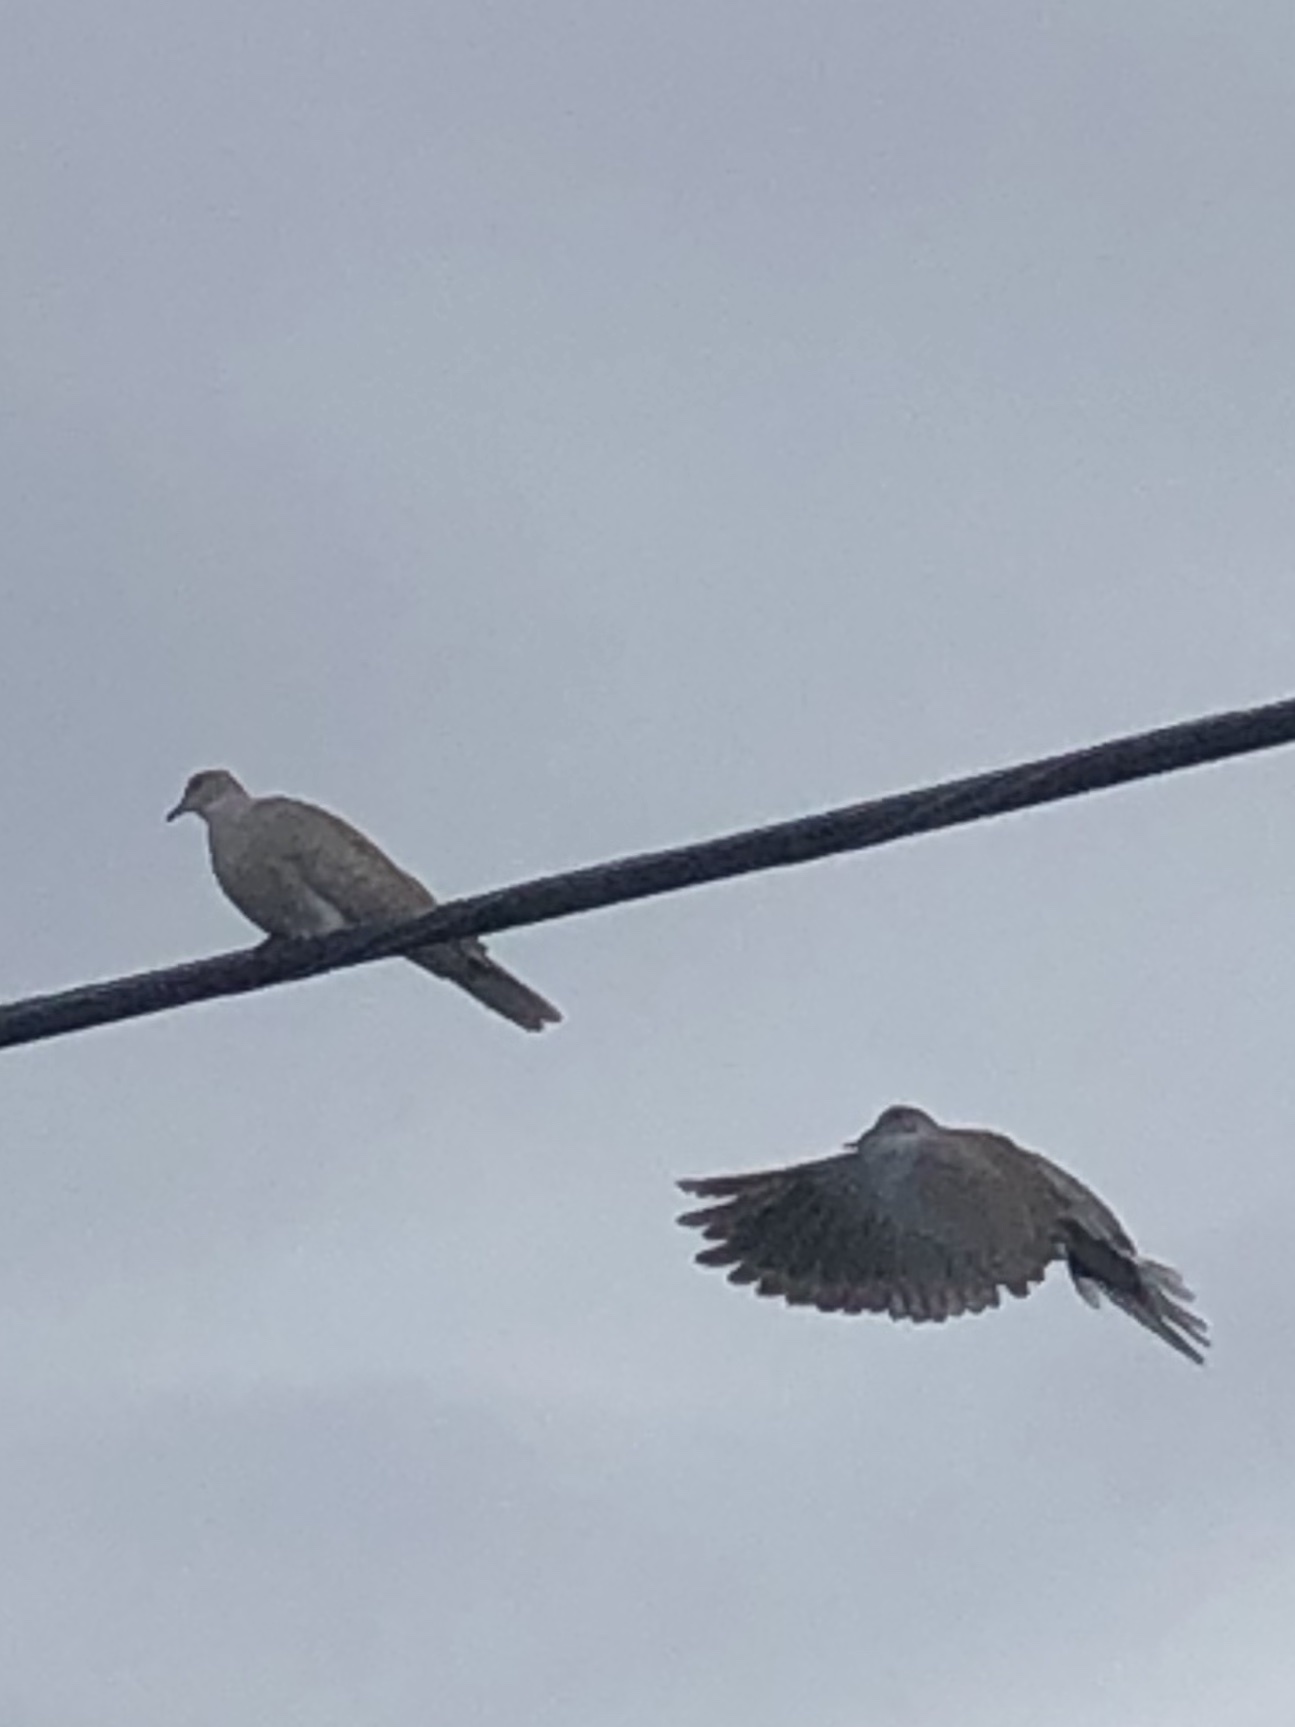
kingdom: Animalia
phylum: Chordata
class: Aves
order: Columbiformes
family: Columbidae
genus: Streptopelia
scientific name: Streptopelia decaocto
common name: Eurasian collared dove
